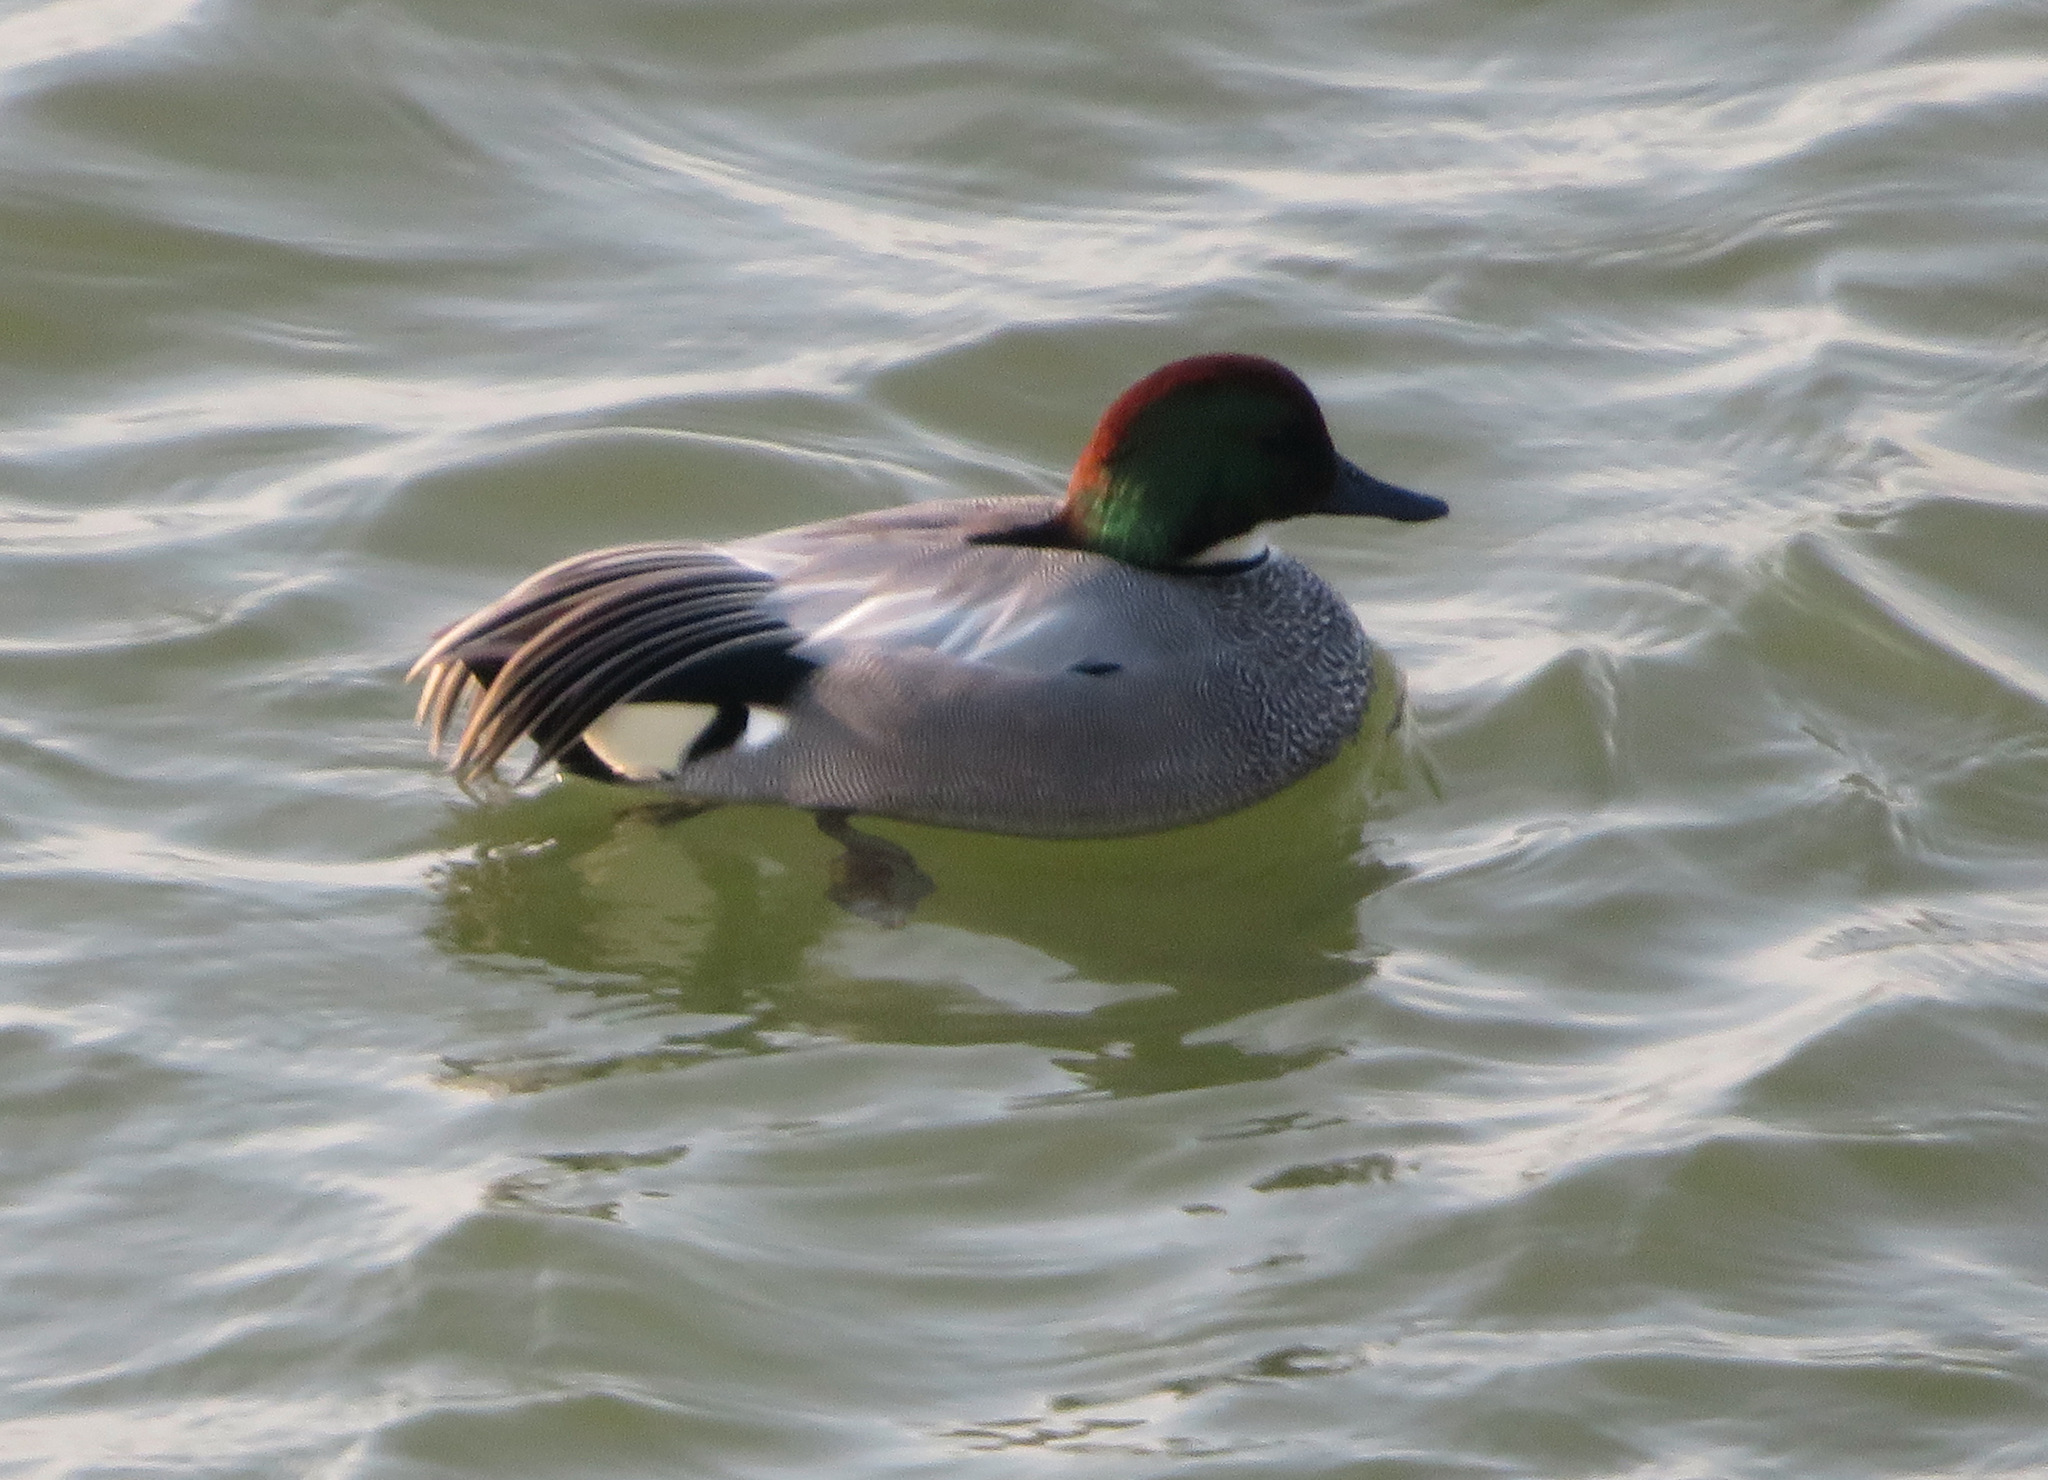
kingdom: Animalia
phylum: Chordata
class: Aves
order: Anseriformes
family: Anatidae
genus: Mareca
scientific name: Mareca falcata
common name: Falcated duck
